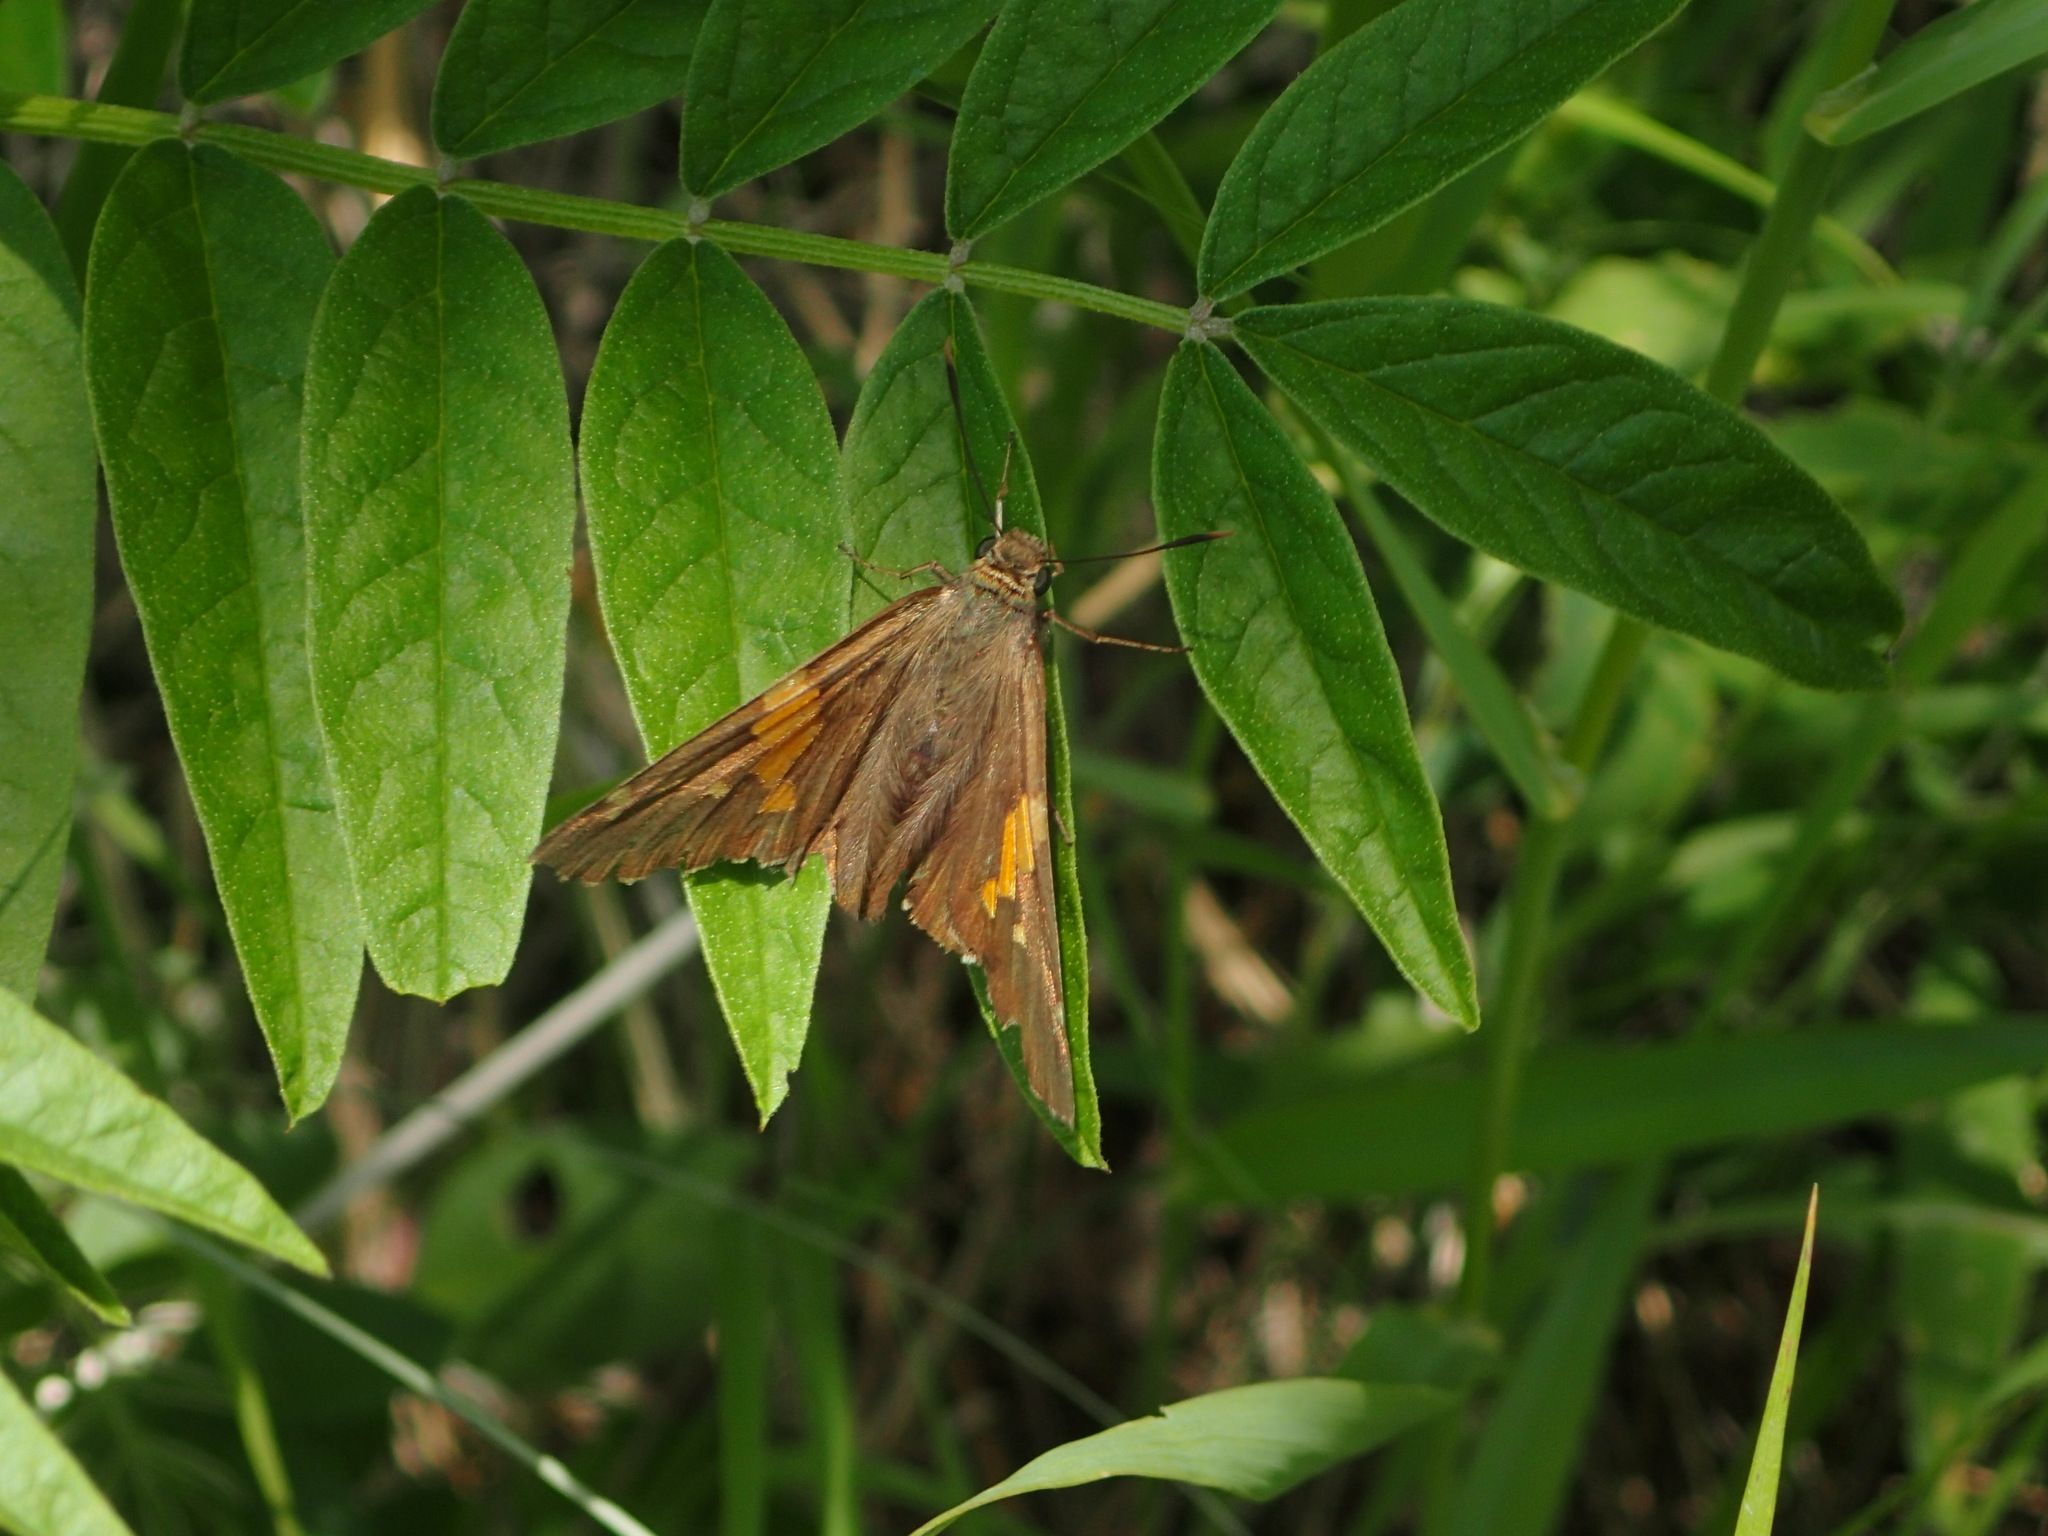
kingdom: Animalia
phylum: Arthropoda
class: Insecta
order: Lepidoptera
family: Hesperiidae
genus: Epargyreus
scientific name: Epargyreus clarus
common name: Silver-spotted skipper
